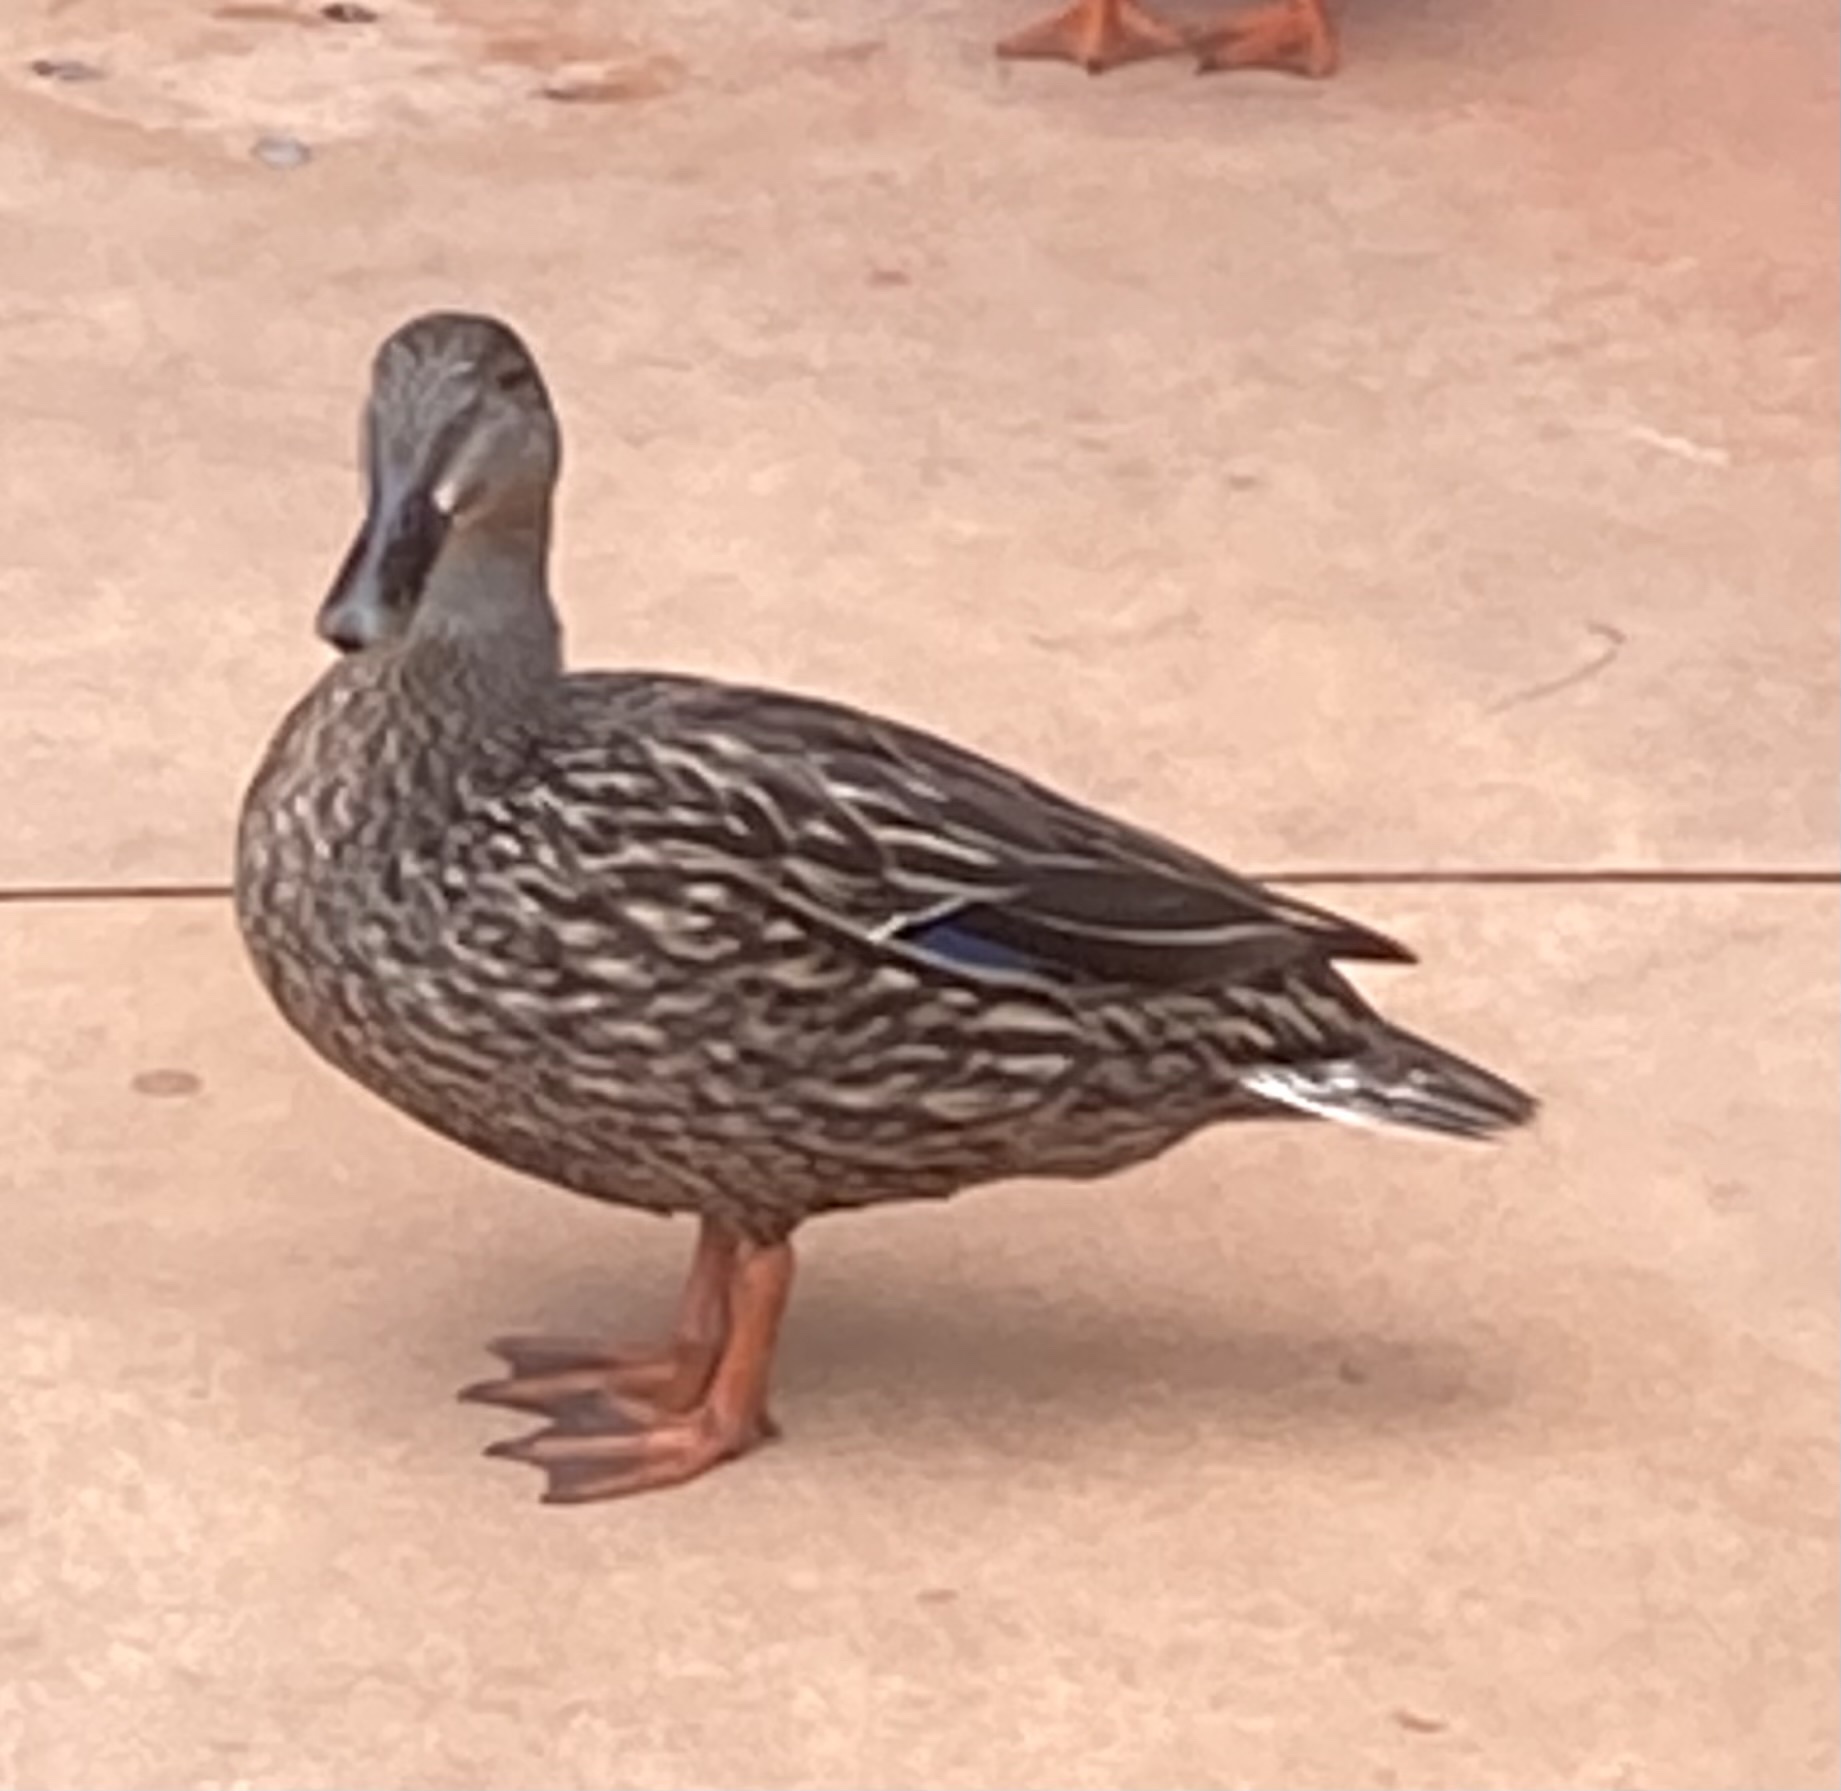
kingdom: Animalia
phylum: Chordata
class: Aves
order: Anseriformes
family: Anatidae
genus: Anas
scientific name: Anas platyrhynchos
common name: Mallard
